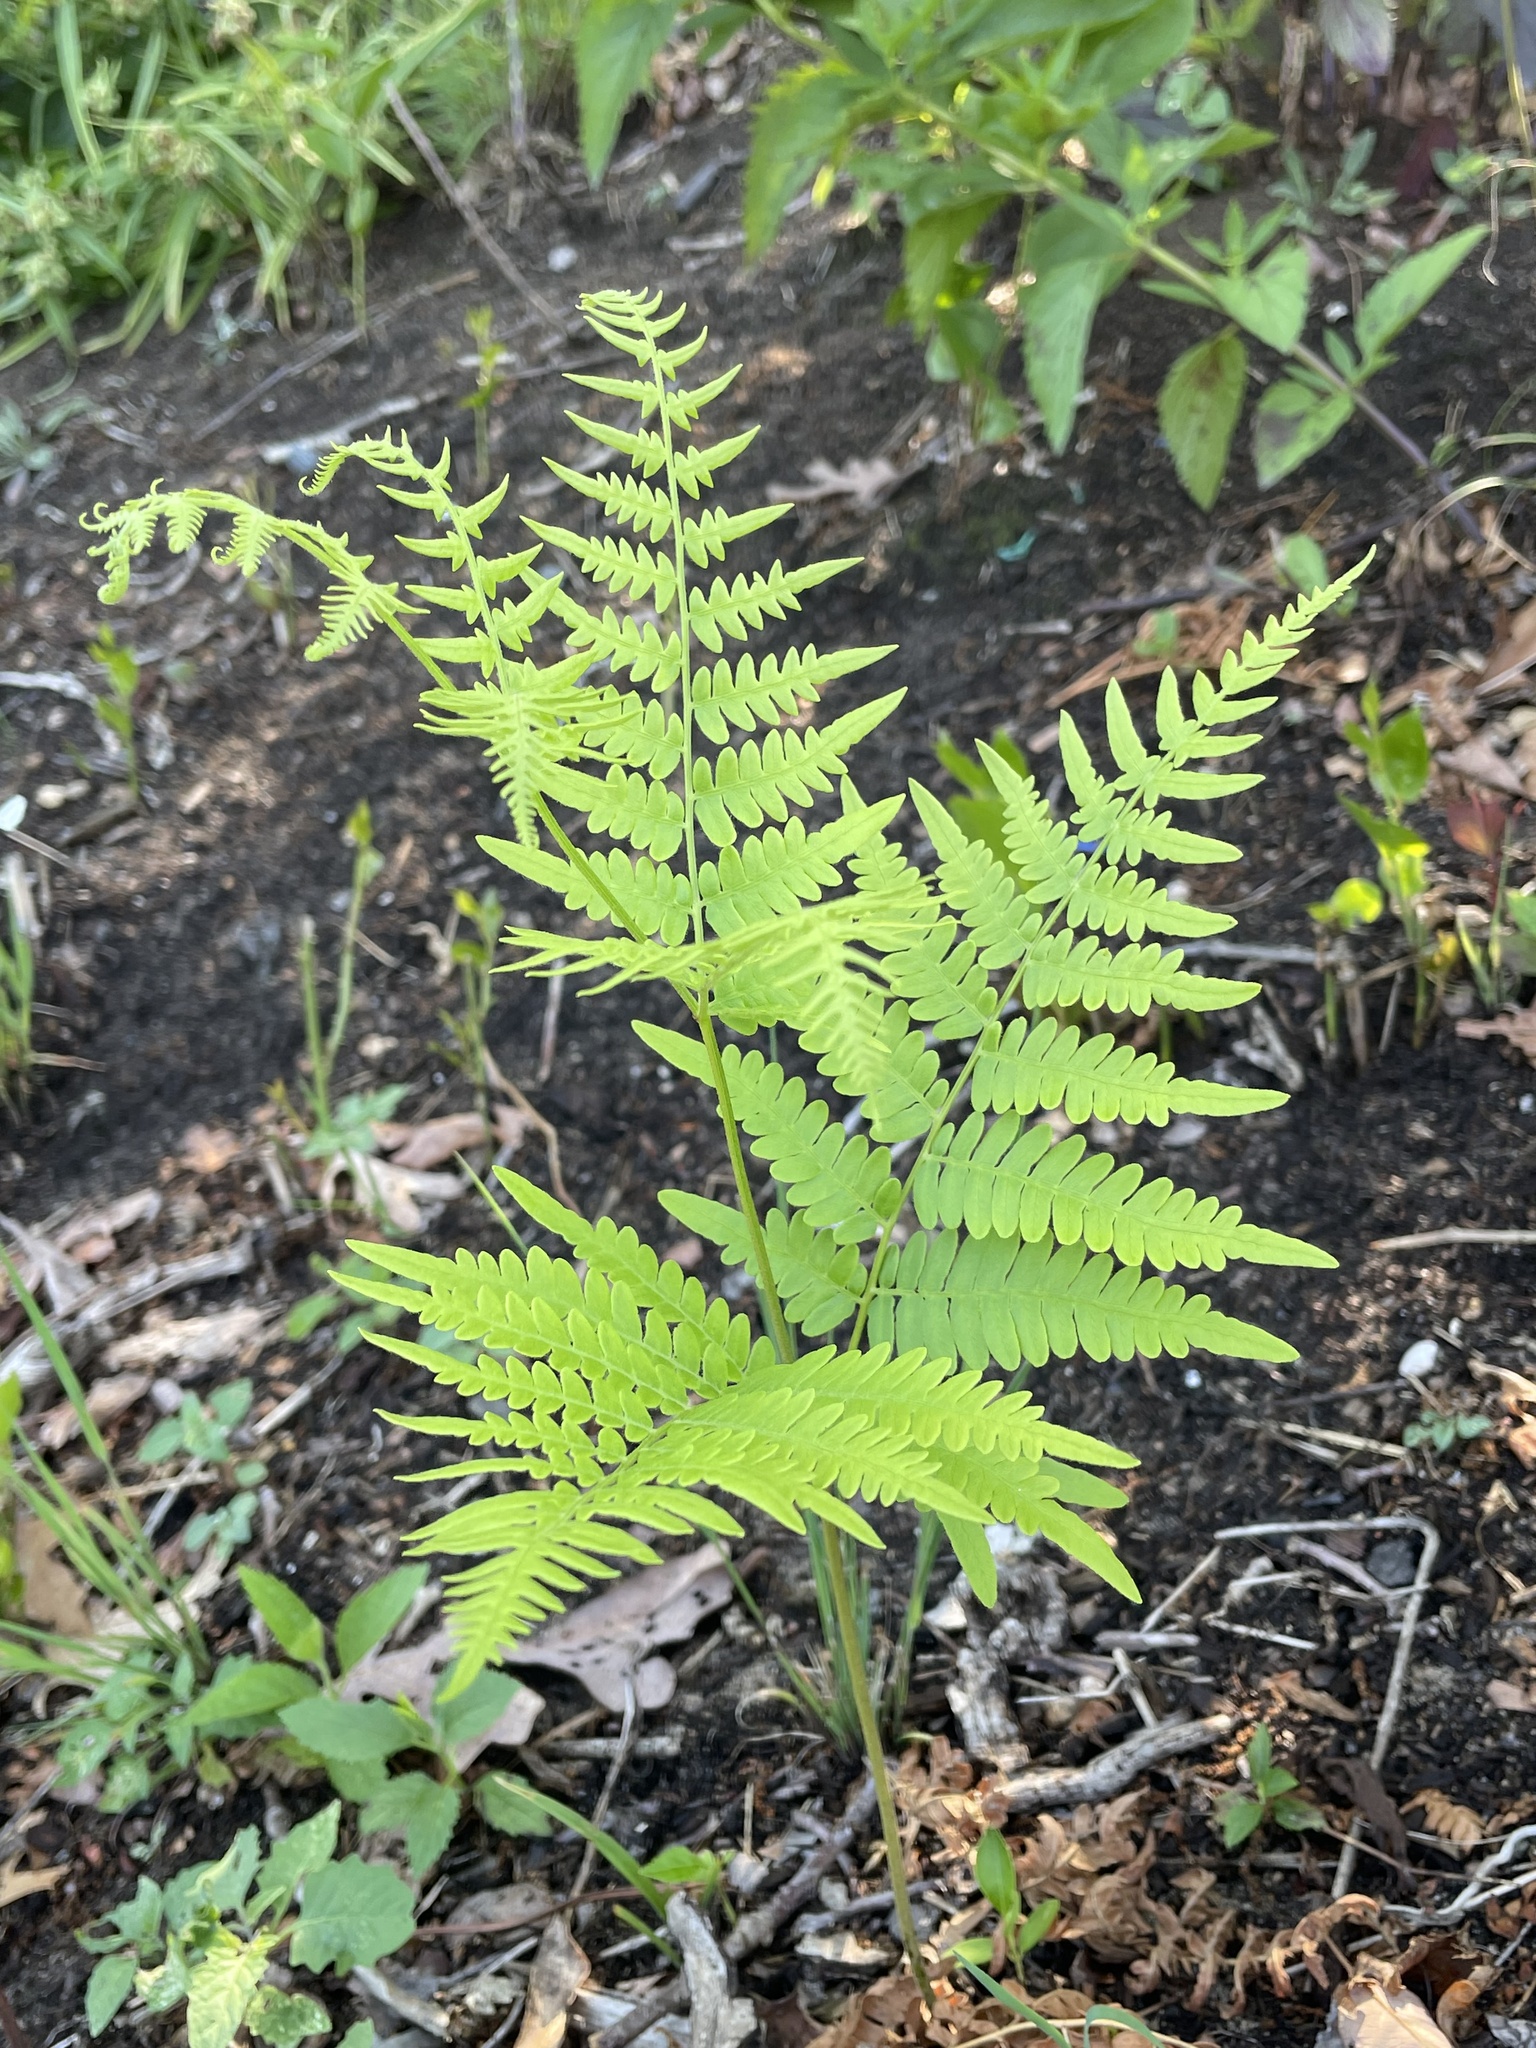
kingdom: Plantae
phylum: Tracheophyta
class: Polypodiopsida
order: Polypodiales
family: Dennstaedtiaceae
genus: Pteridium
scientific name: Pteridium aquilinum
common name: Bracken
